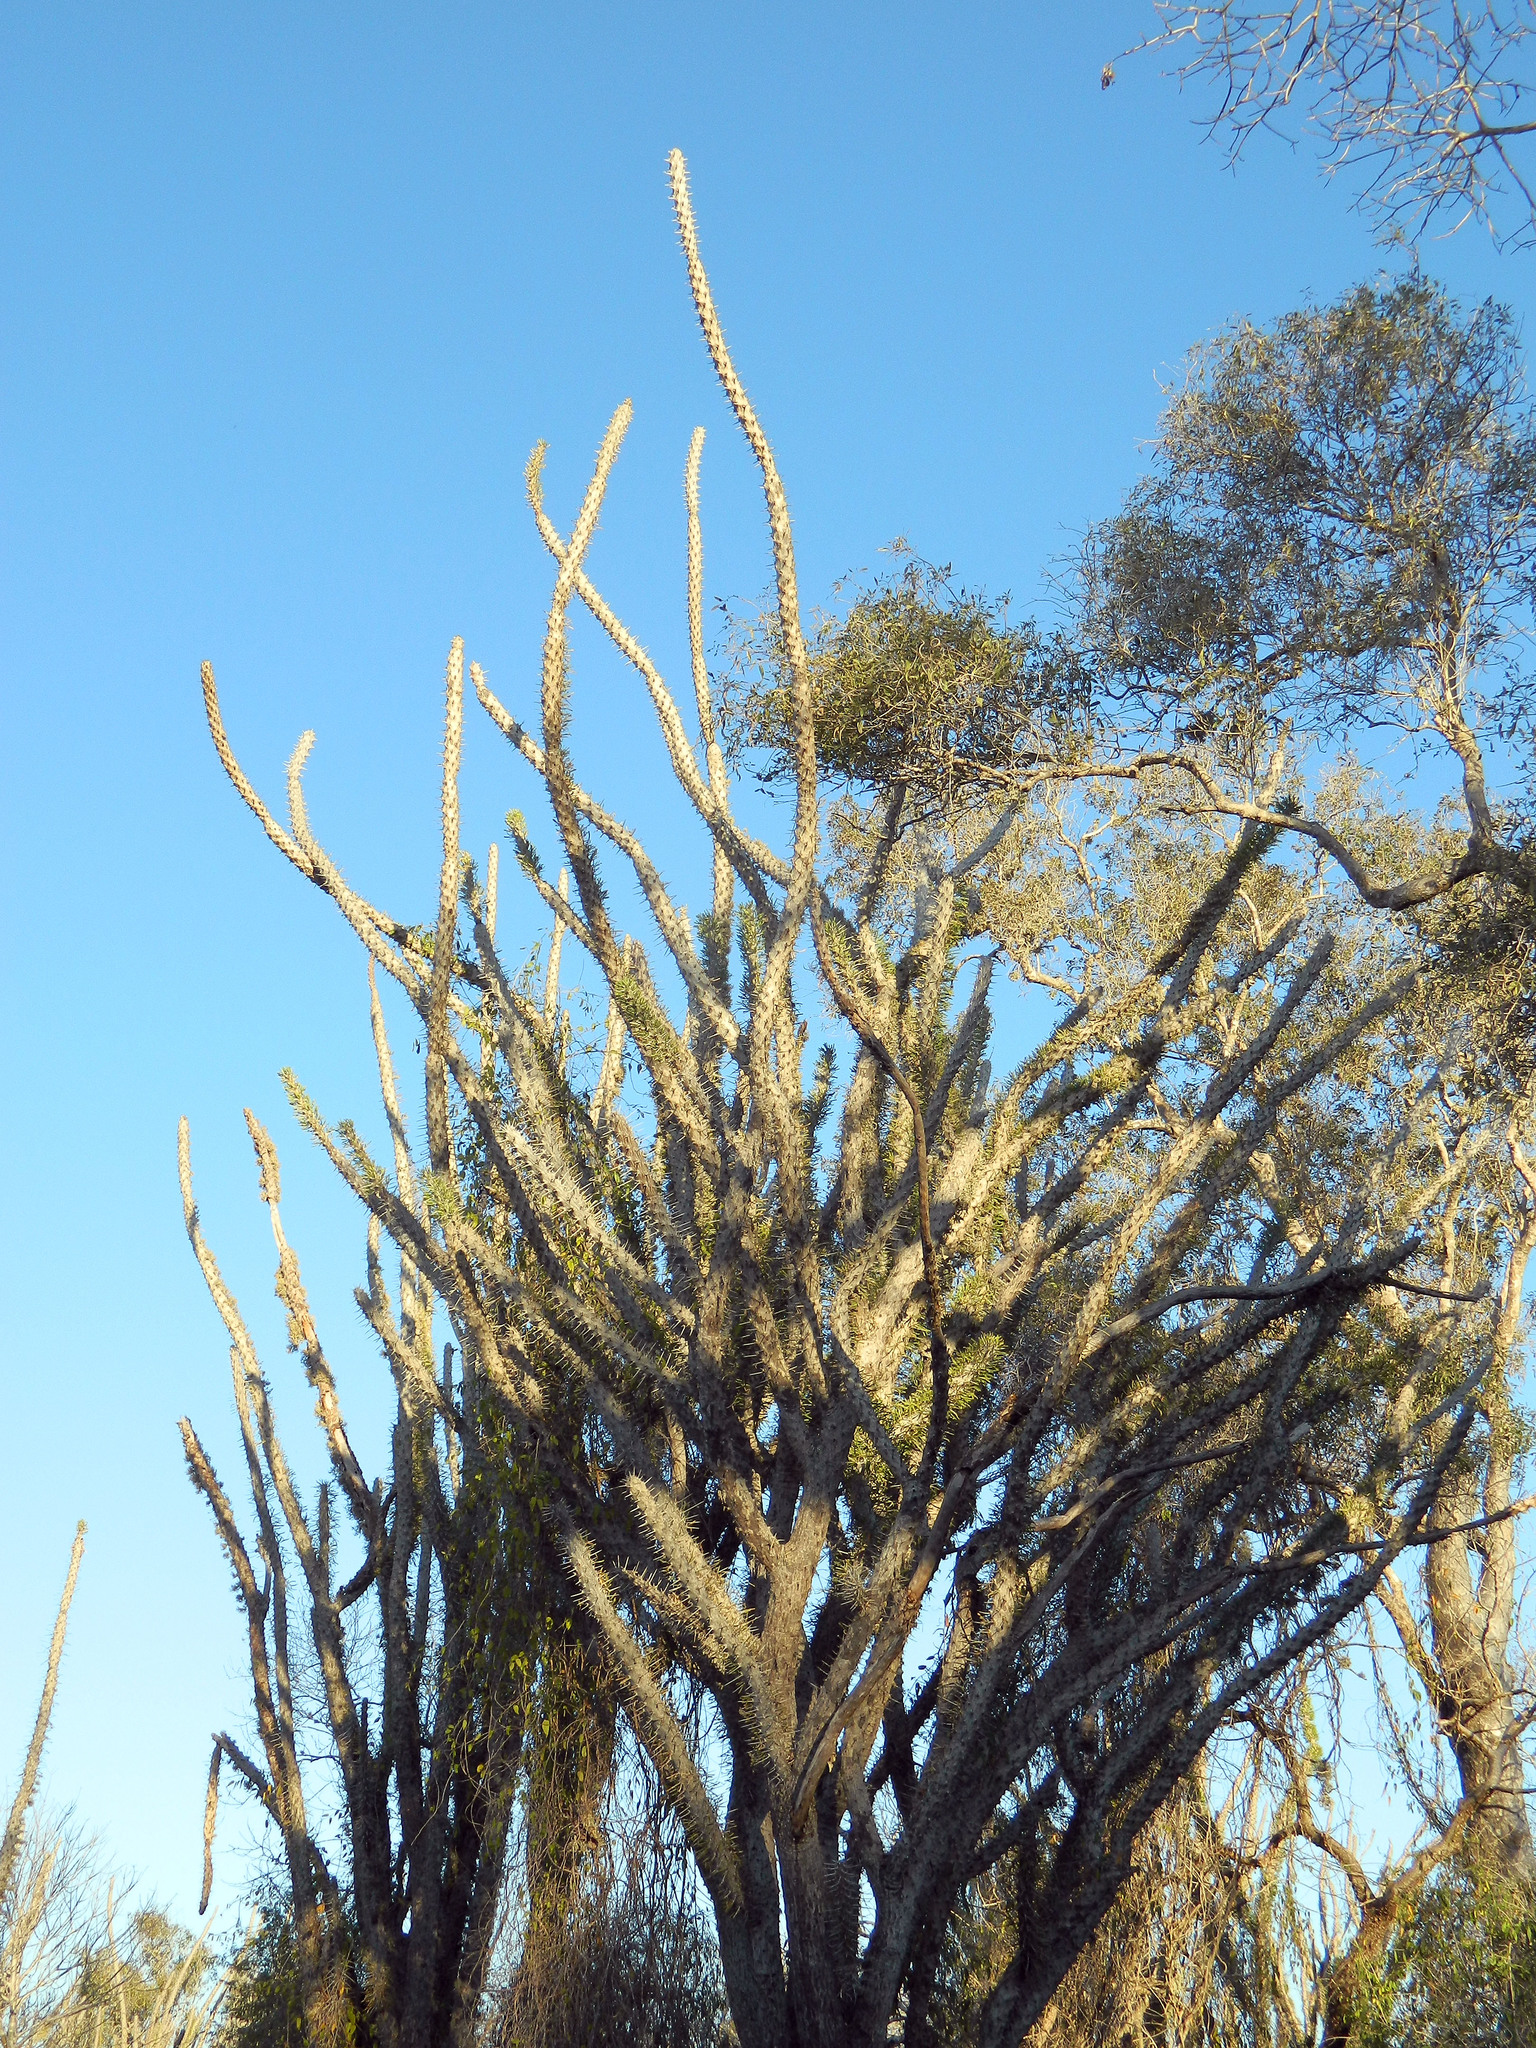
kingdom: Plantae
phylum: Tracheophyta
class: Magnoliopsida
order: Caryophyllales
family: Didiereaceae
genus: Didierea
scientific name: Didierea madagascariensis
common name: Octopus-tree
